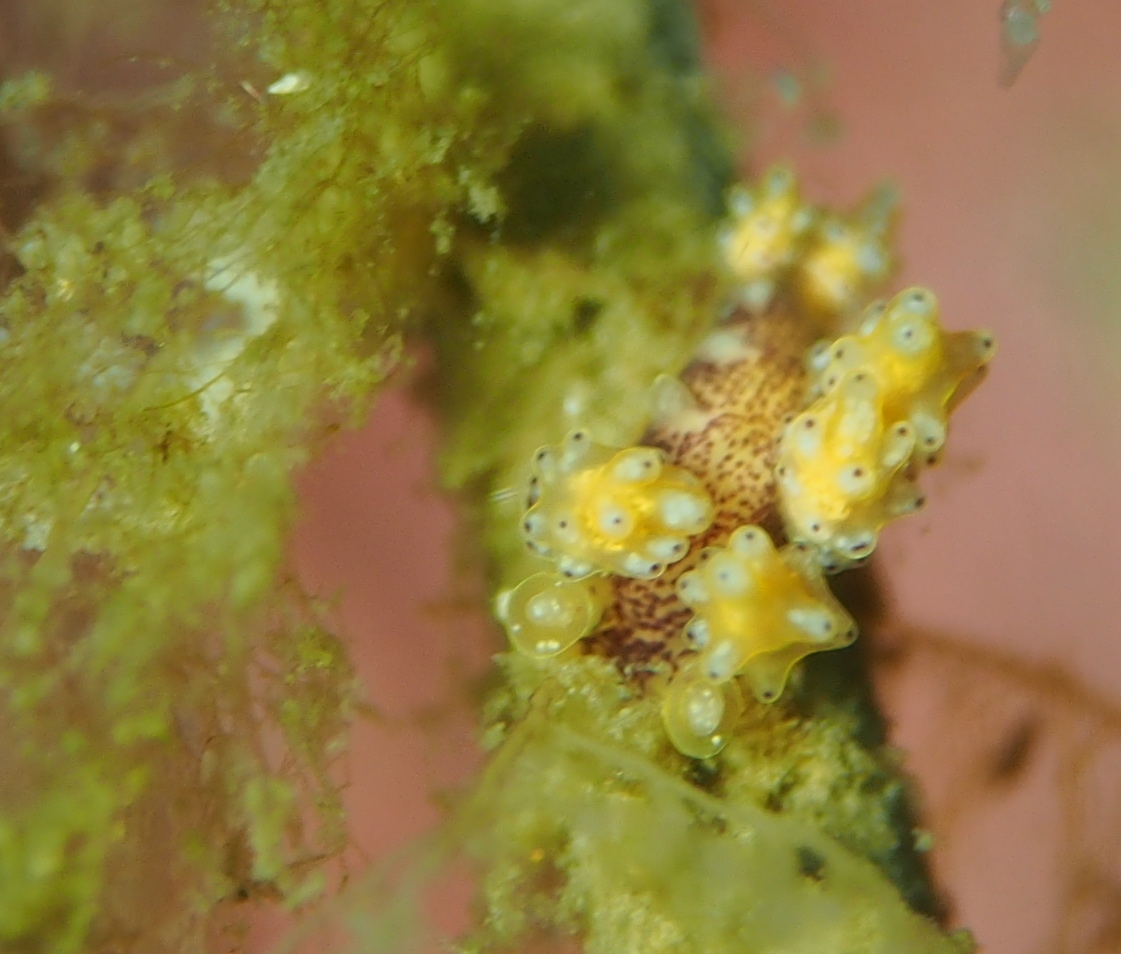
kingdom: Animalia
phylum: Mollusca
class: Gastropoda
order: Nudibranchia
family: Dotidae
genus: Doto
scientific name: Doto dunnei
